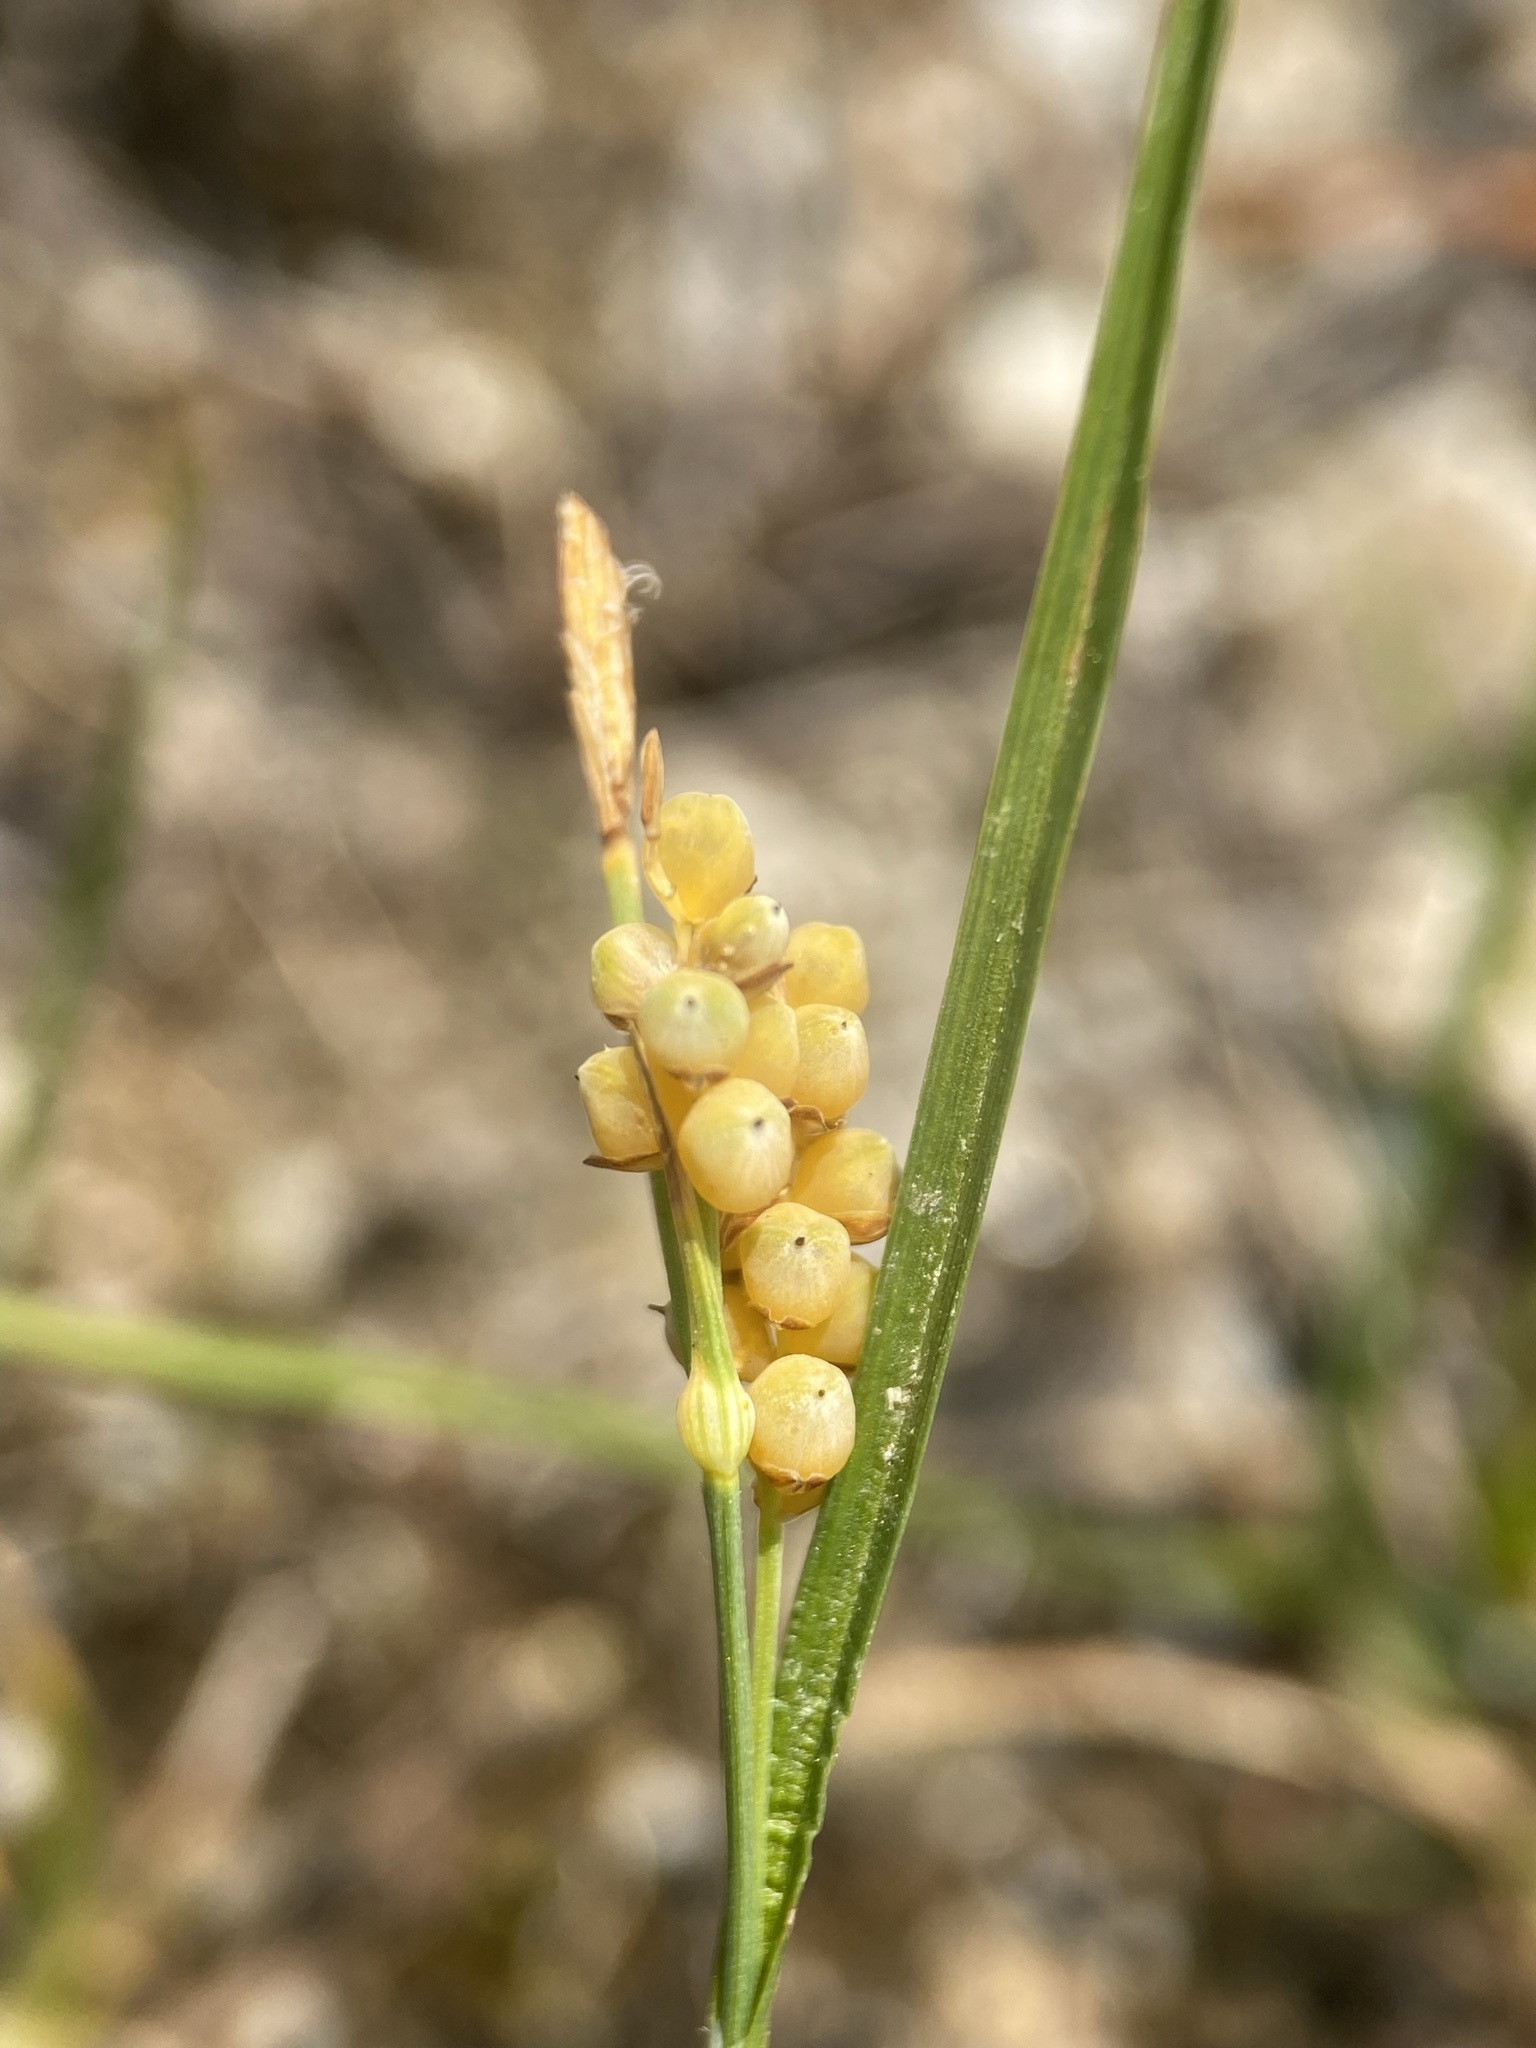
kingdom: Plantae
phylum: Tracheophyta
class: Liliopsida
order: Poales
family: Cyperaceae
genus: Carex
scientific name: Carex aurea
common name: Golden sedge
